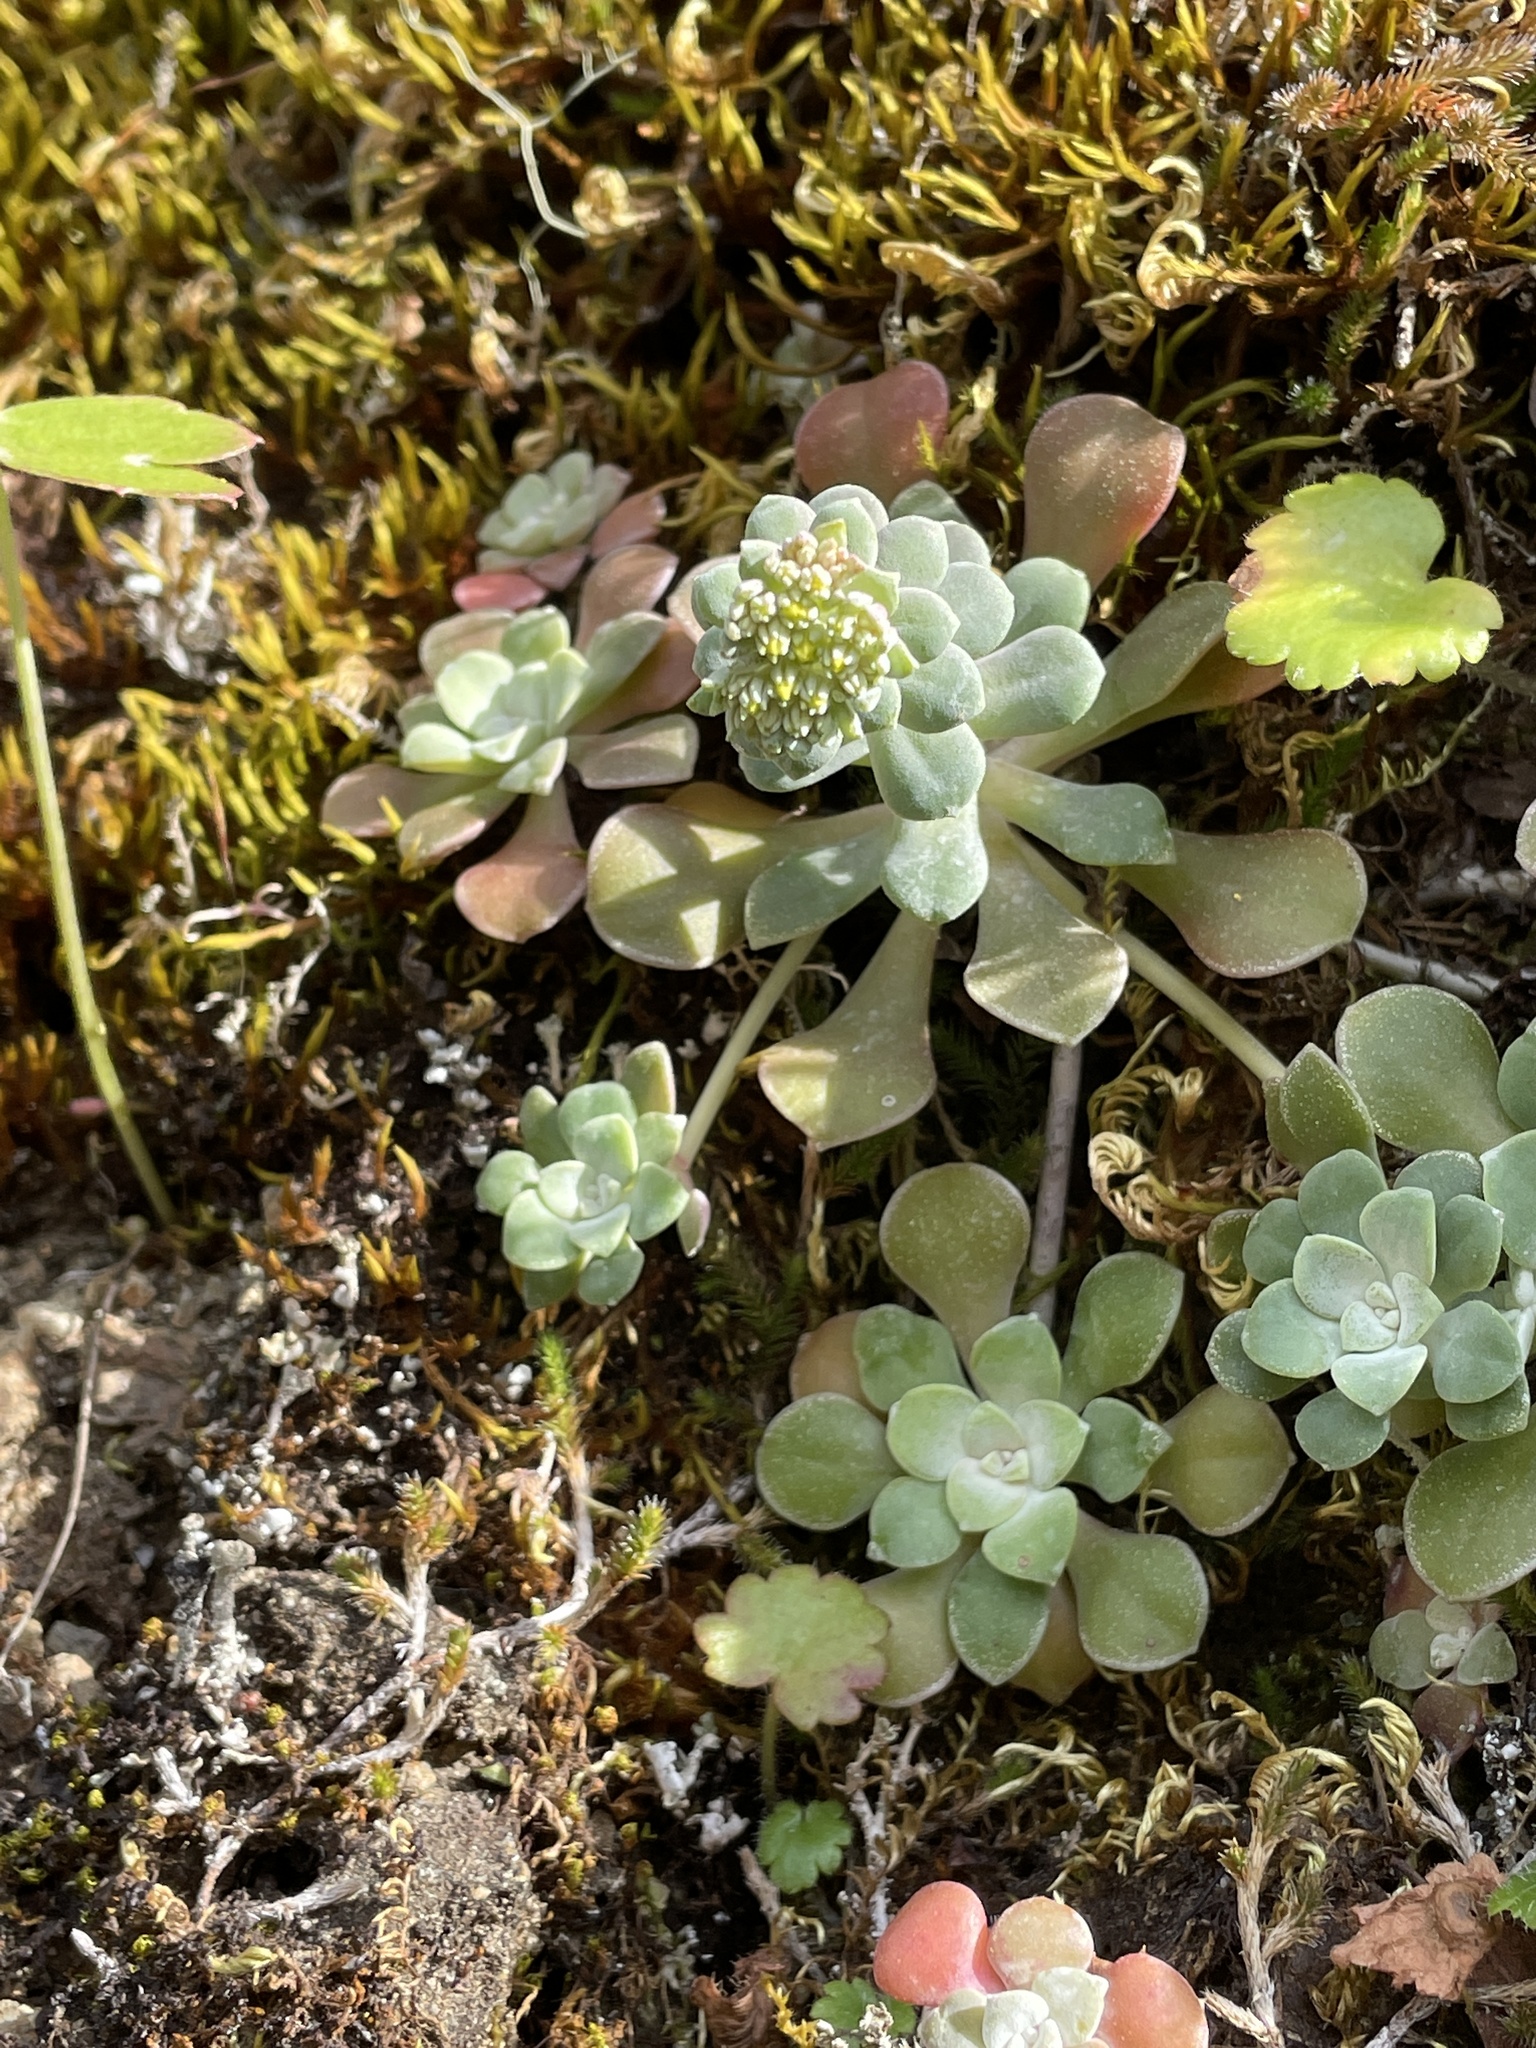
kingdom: Plantae
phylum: Tracheophyta
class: Magnoliopsida
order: Saxifragales
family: Crassulaceae
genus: Sedum
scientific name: Sedum spathulifolium
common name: Colorado stonecrop
